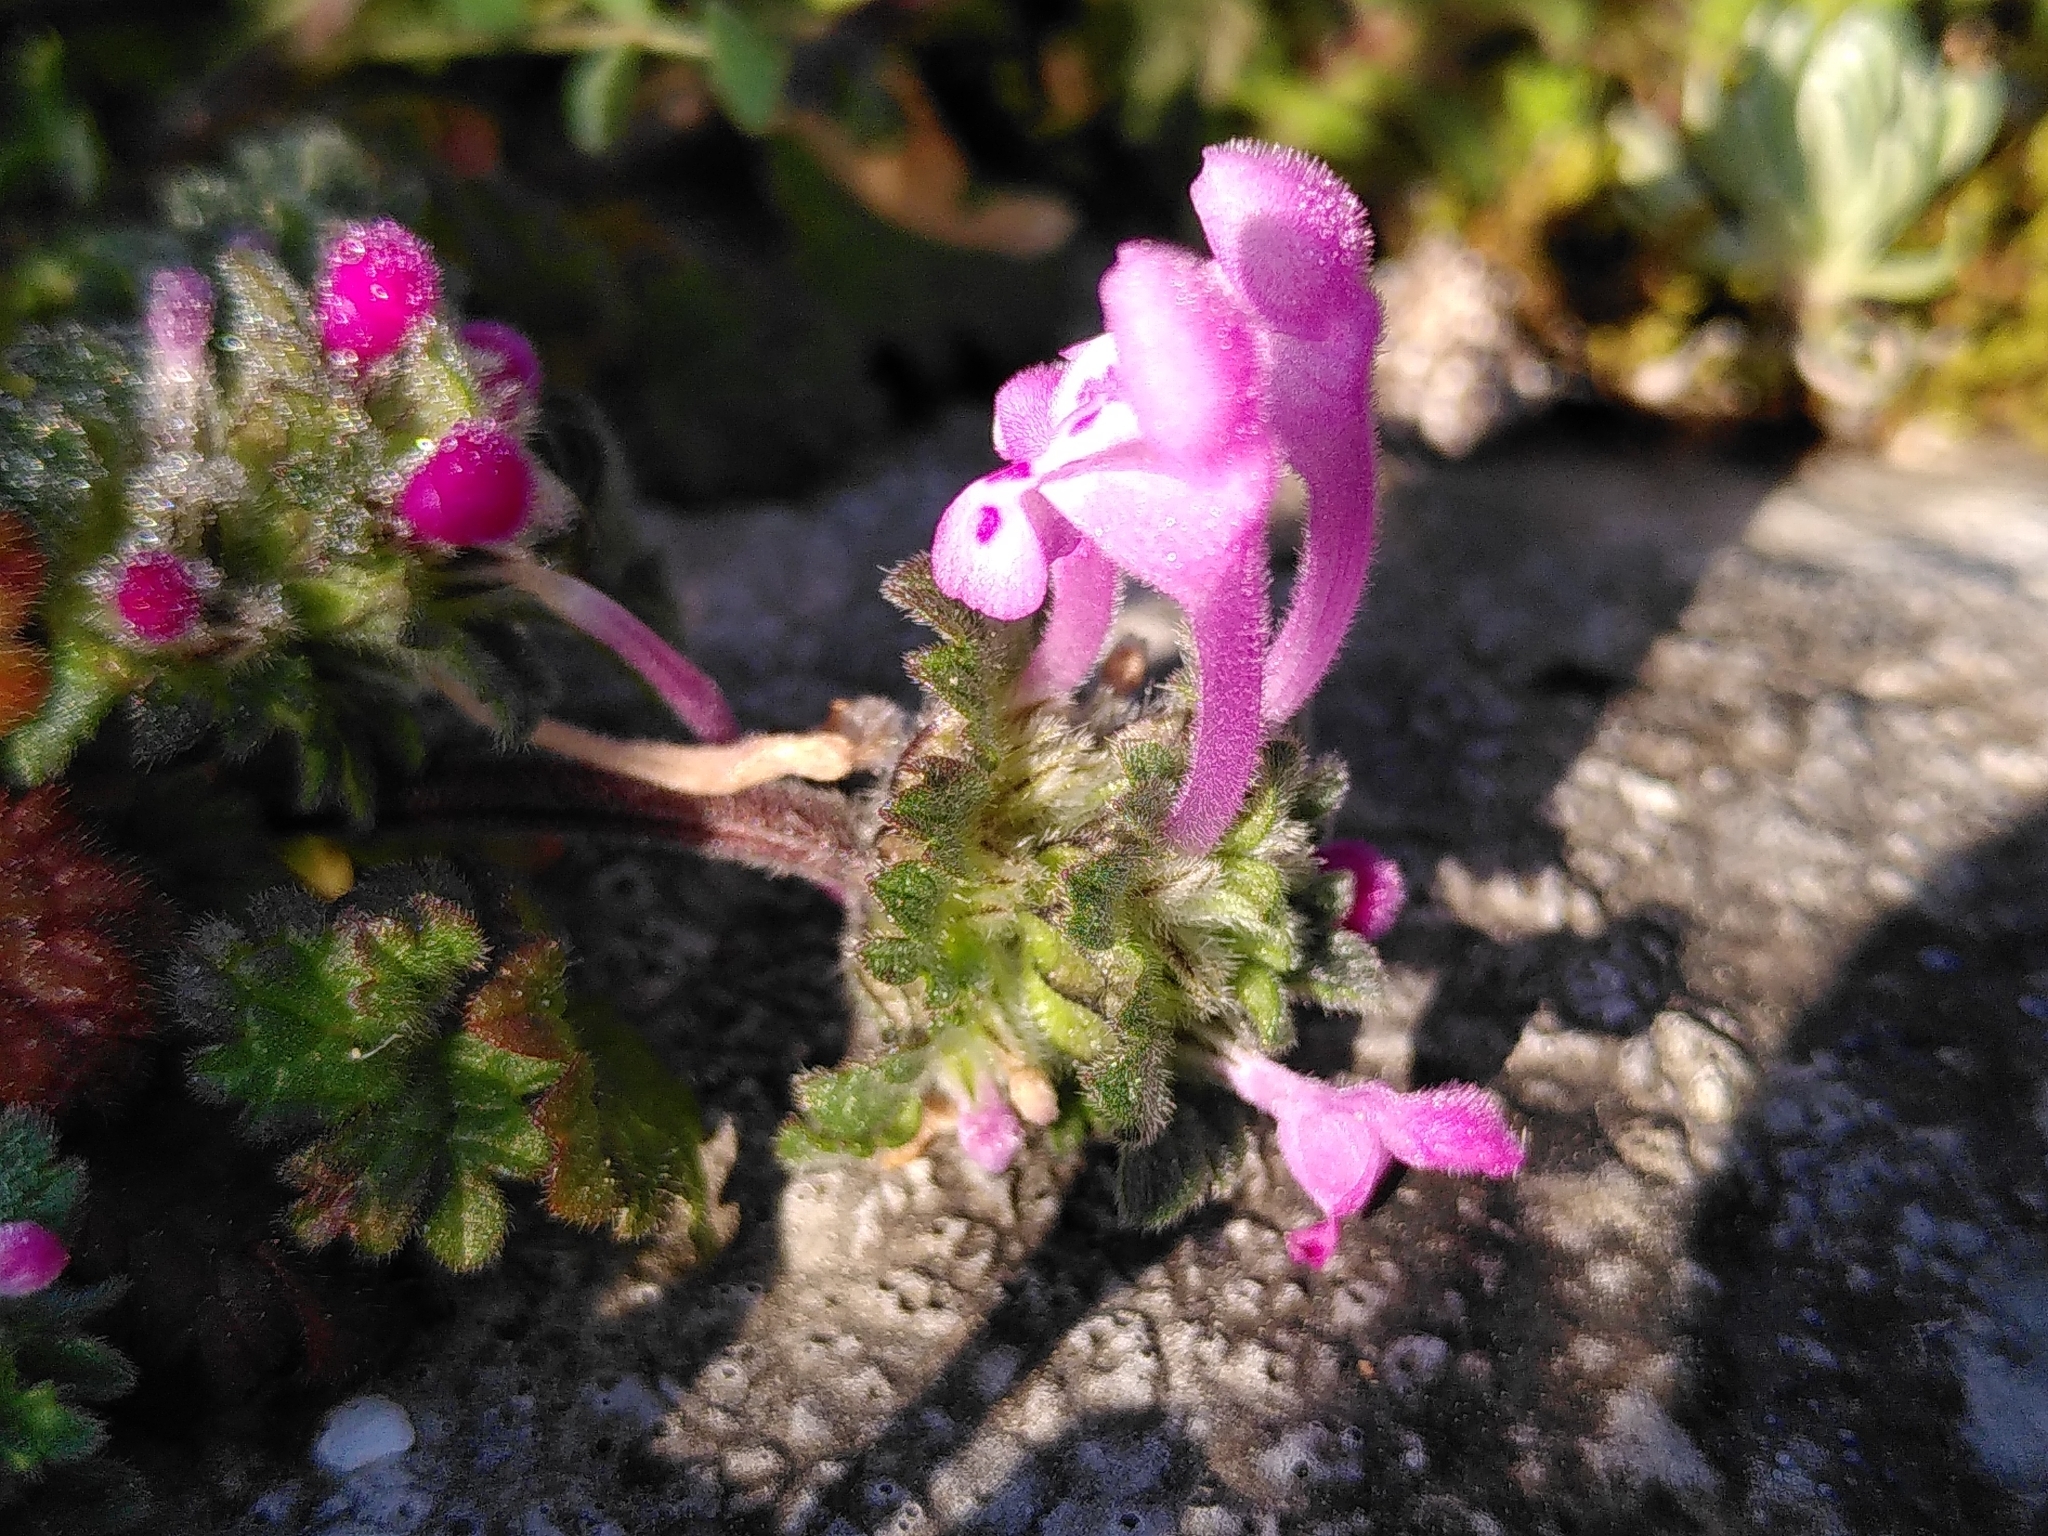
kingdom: Plantae
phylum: Tracheophyta
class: Magnoliopsida
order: Lamiales
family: Lamiaceae
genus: Lamium
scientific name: Lamium amplexicaule
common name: Henbit dead-nettle
